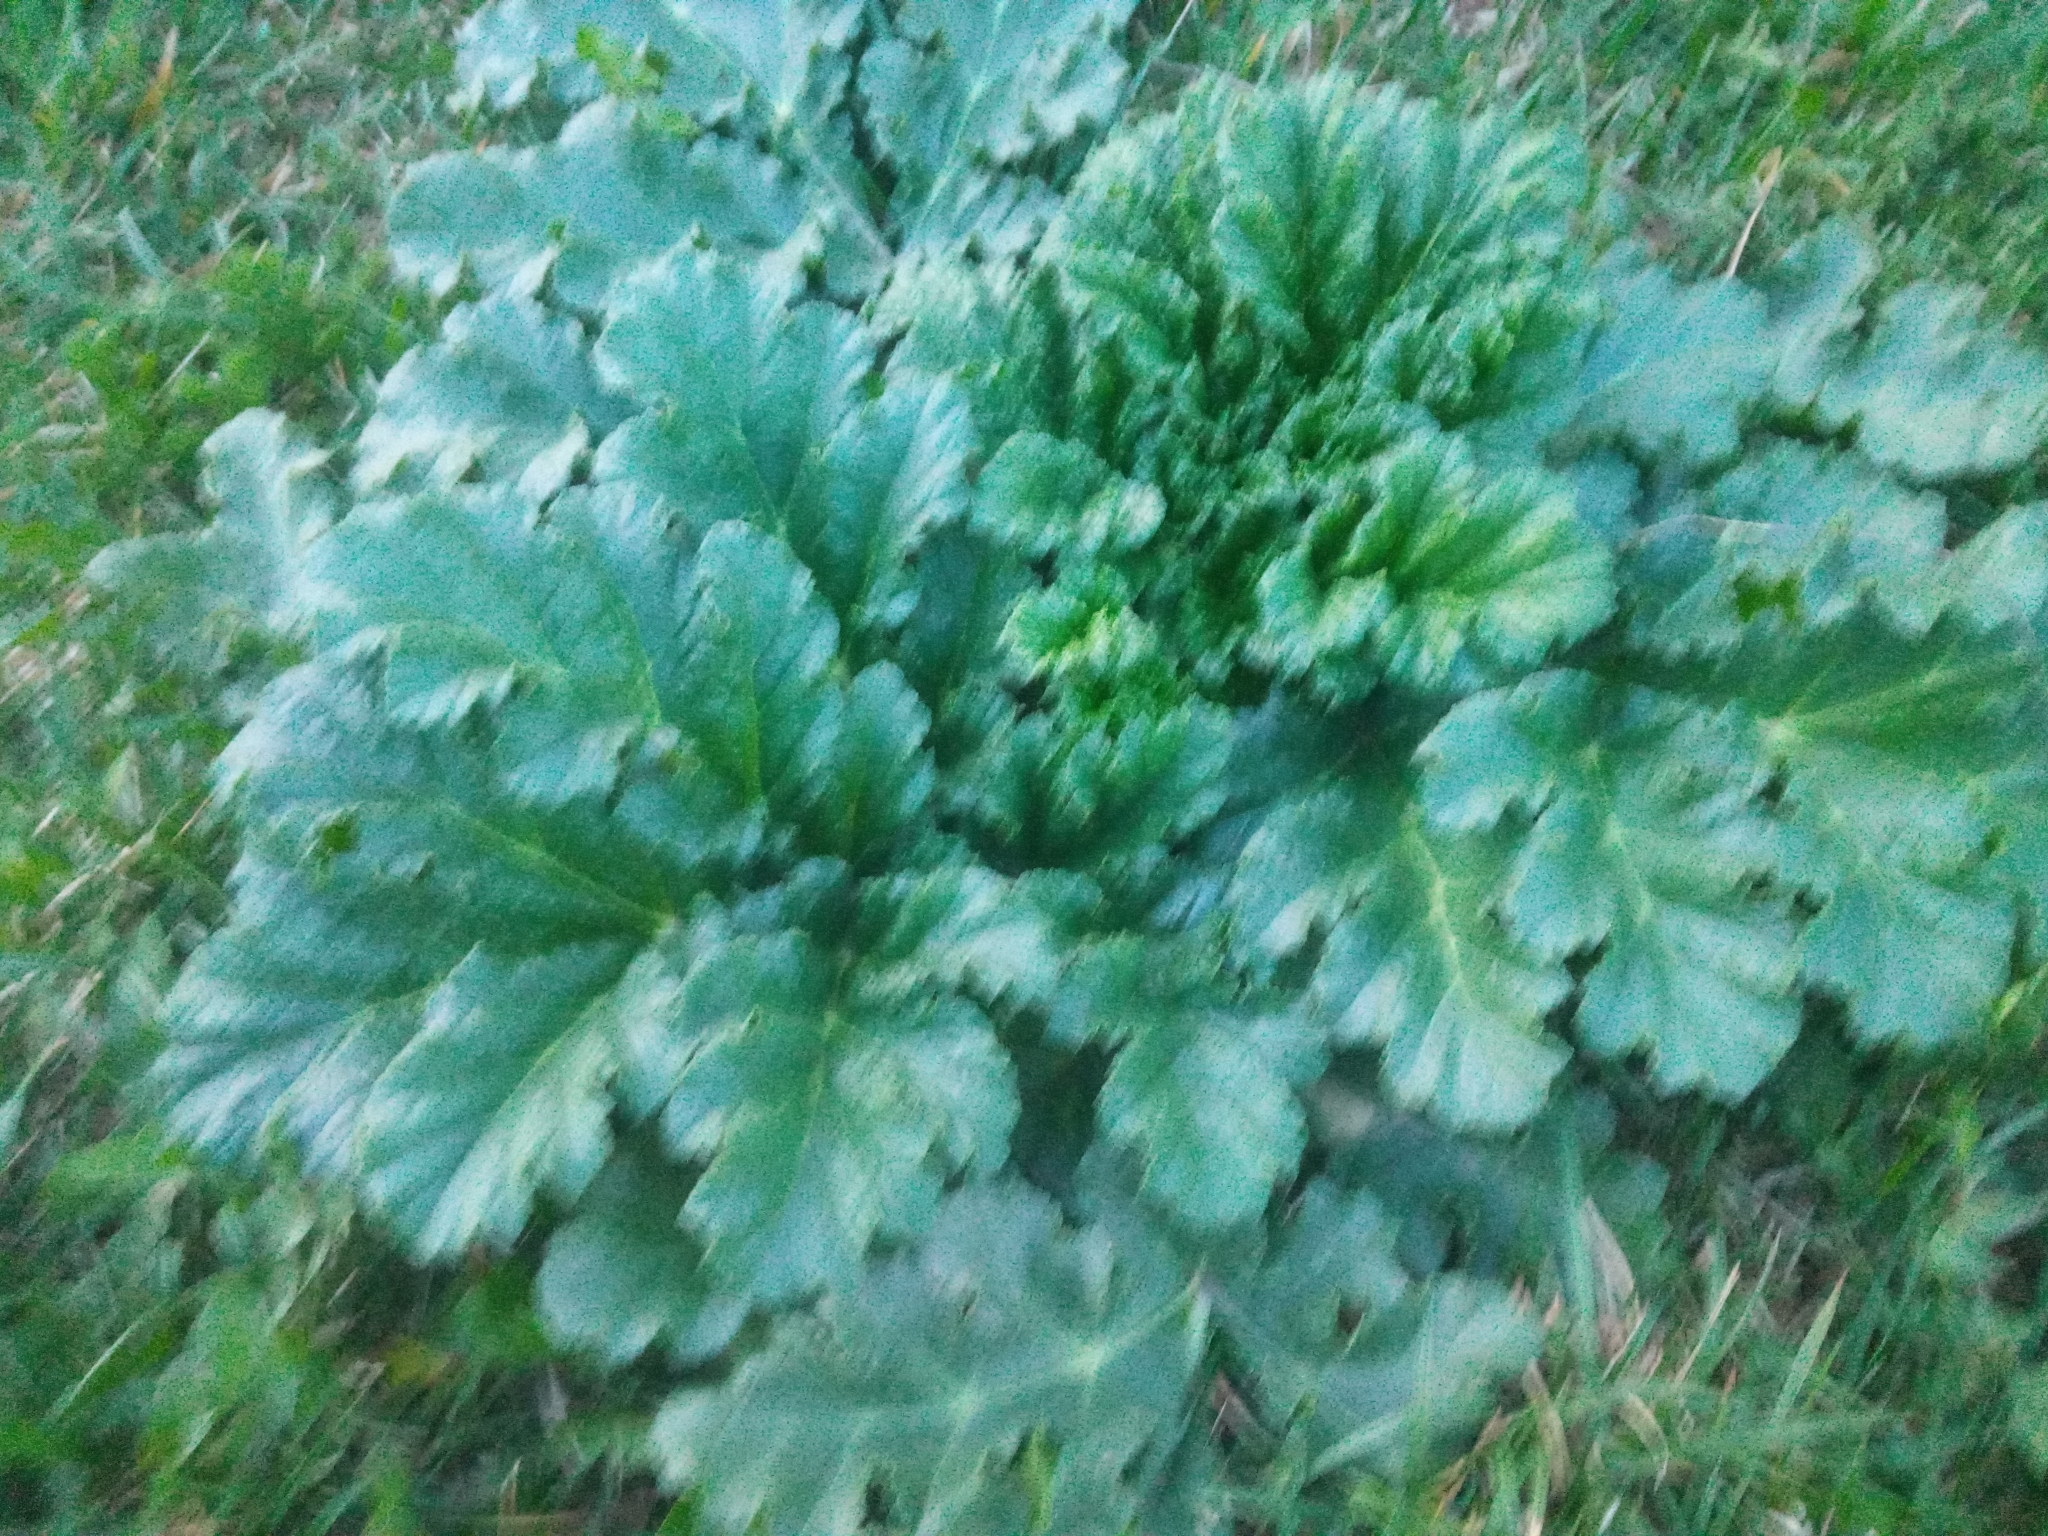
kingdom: Plantae
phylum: Tracheophyta
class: Magnoliopsida
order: Apiales
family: Apiaceae
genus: Heracleum
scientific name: Heracleum sosnowskyi
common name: Sosnowsky's hogweed
